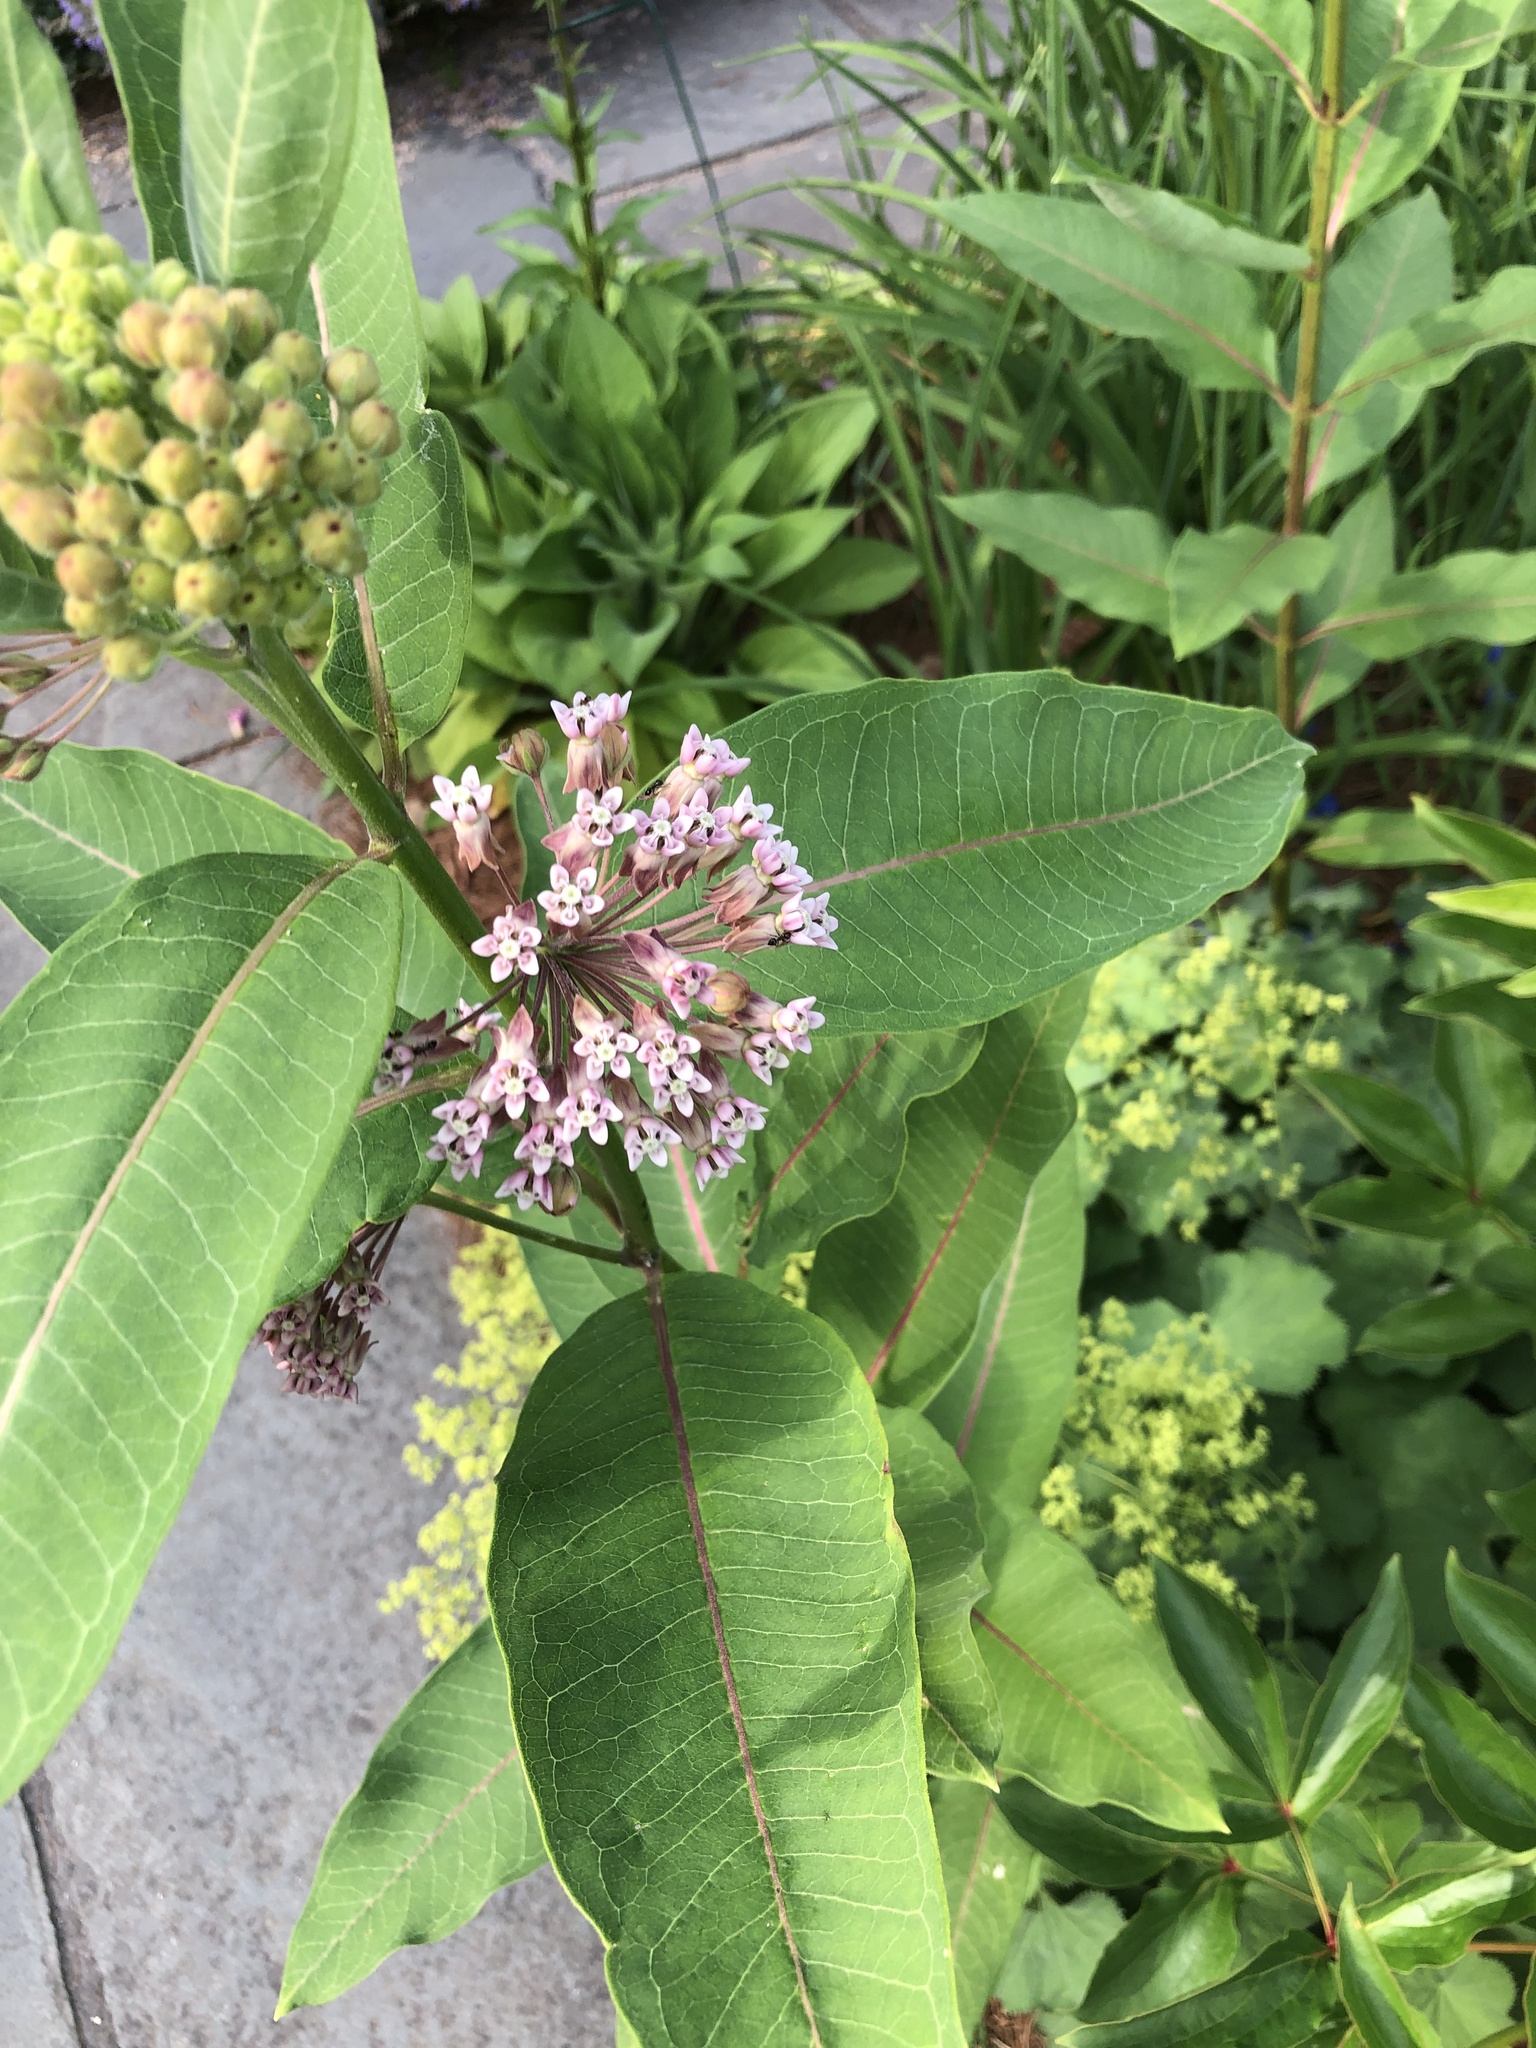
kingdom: Plantae
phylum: Tracheophyta
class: Magnoliopsida
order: Gentianales
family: Apocynaceae
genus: Asclepias
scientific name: Asclepias syriaca
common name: Common milkweed
